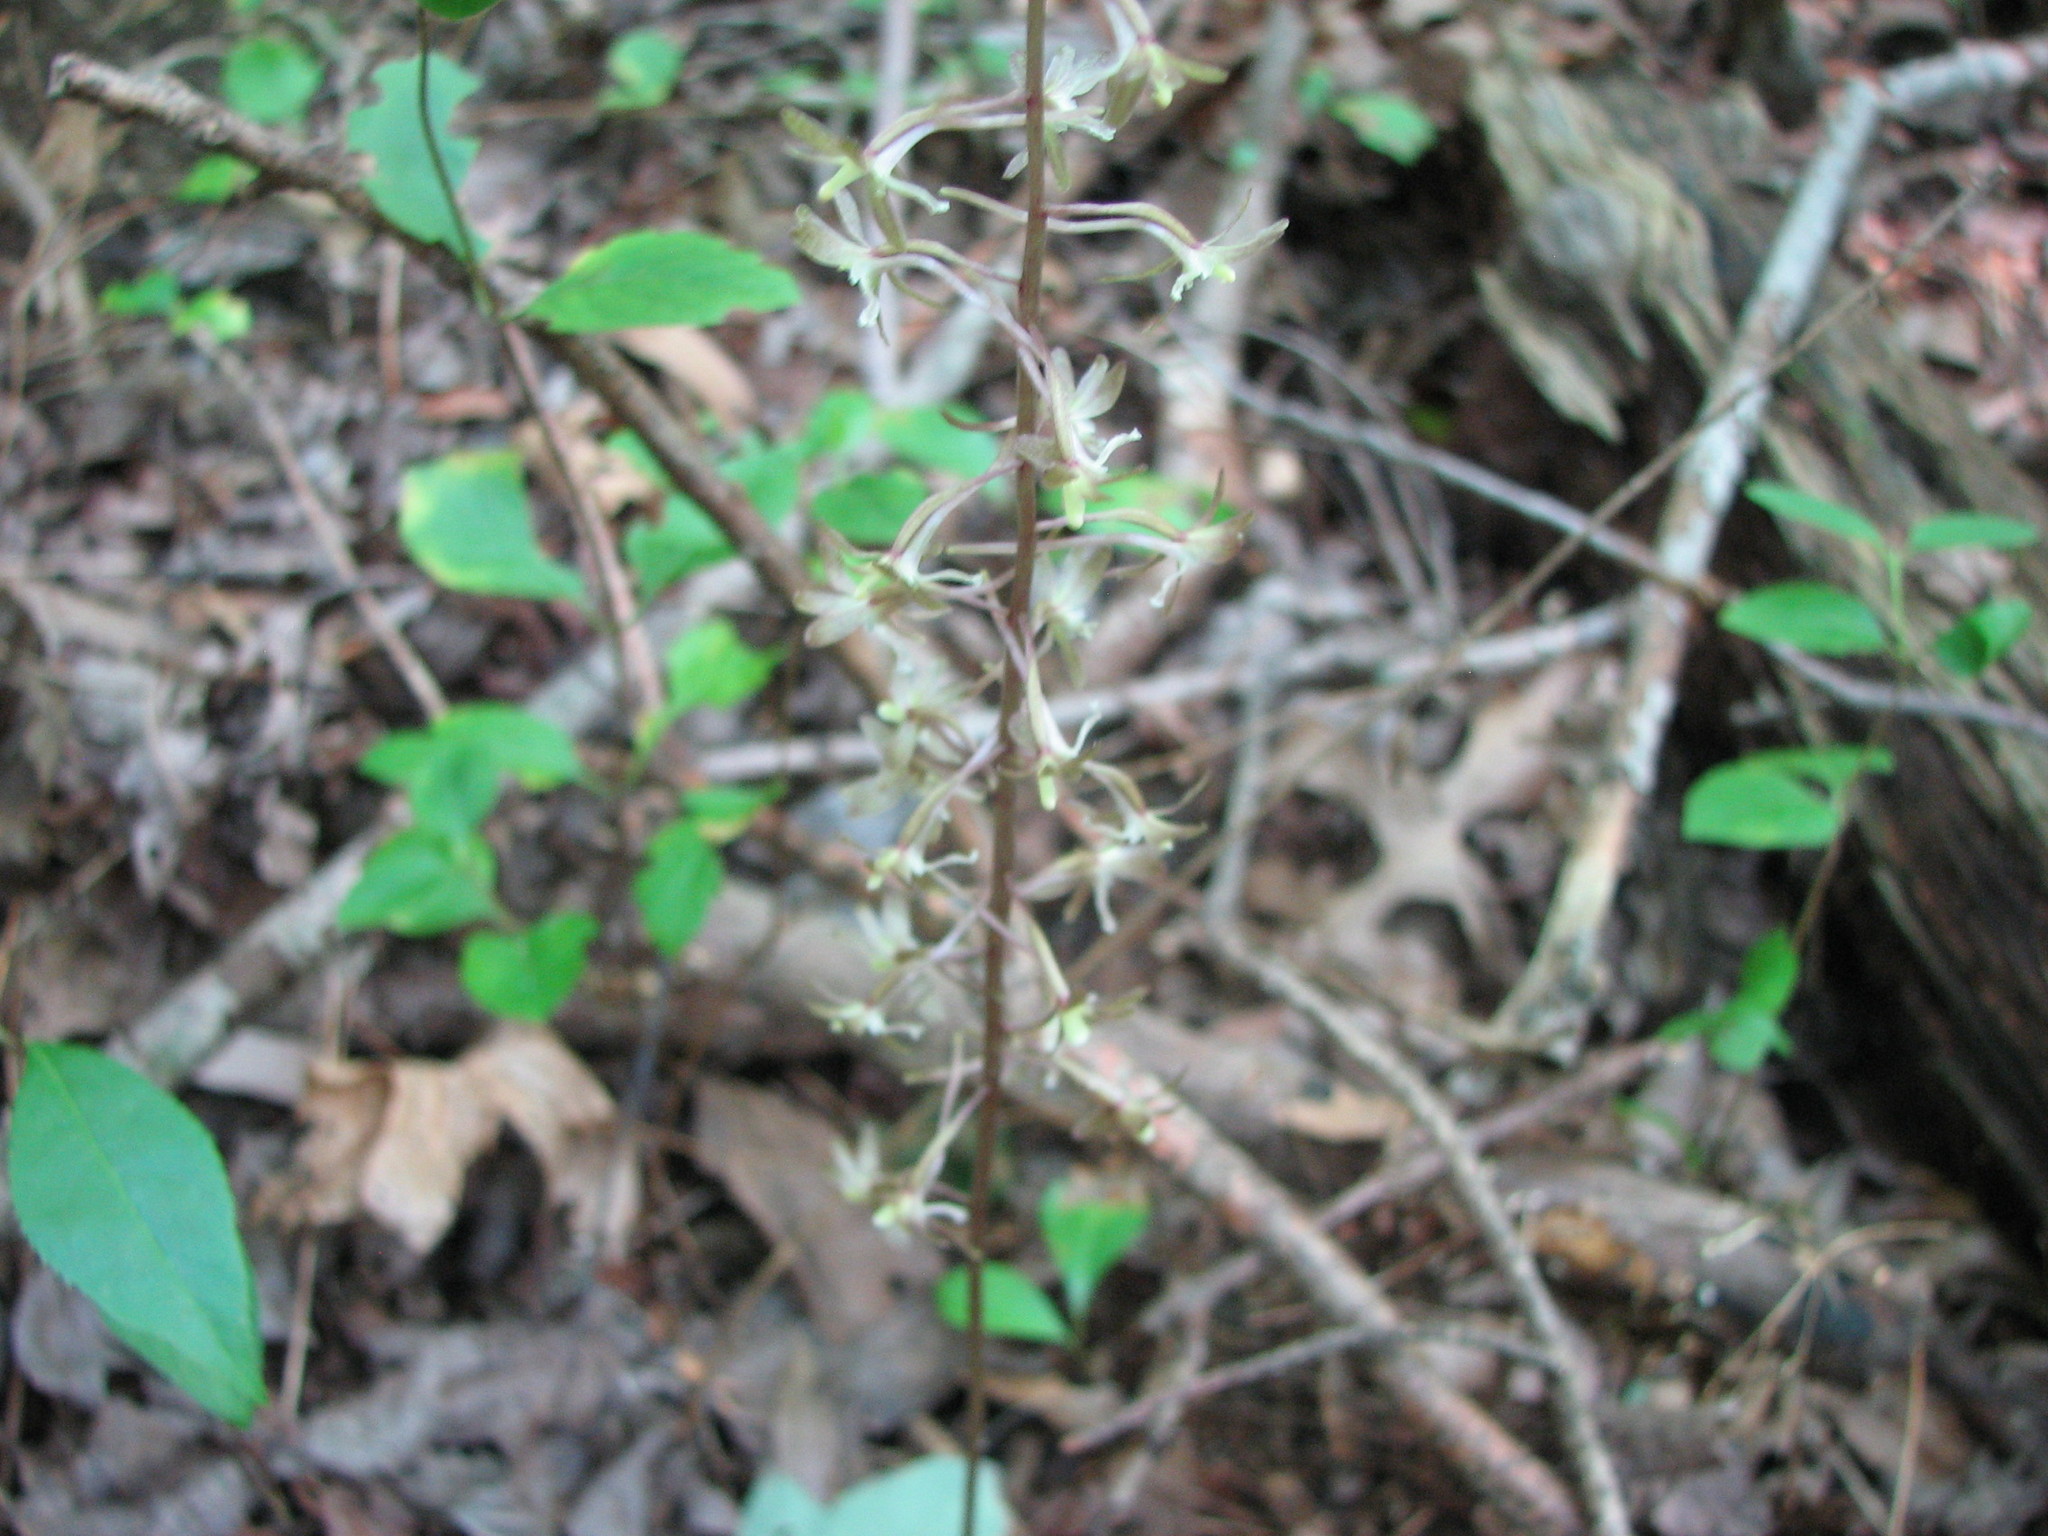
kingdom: Plantae
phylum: Tracheophyta
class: Liliopsida
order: Asparagales
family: Orchidaceae
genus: Tipularia
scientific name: Tipularia discolor
